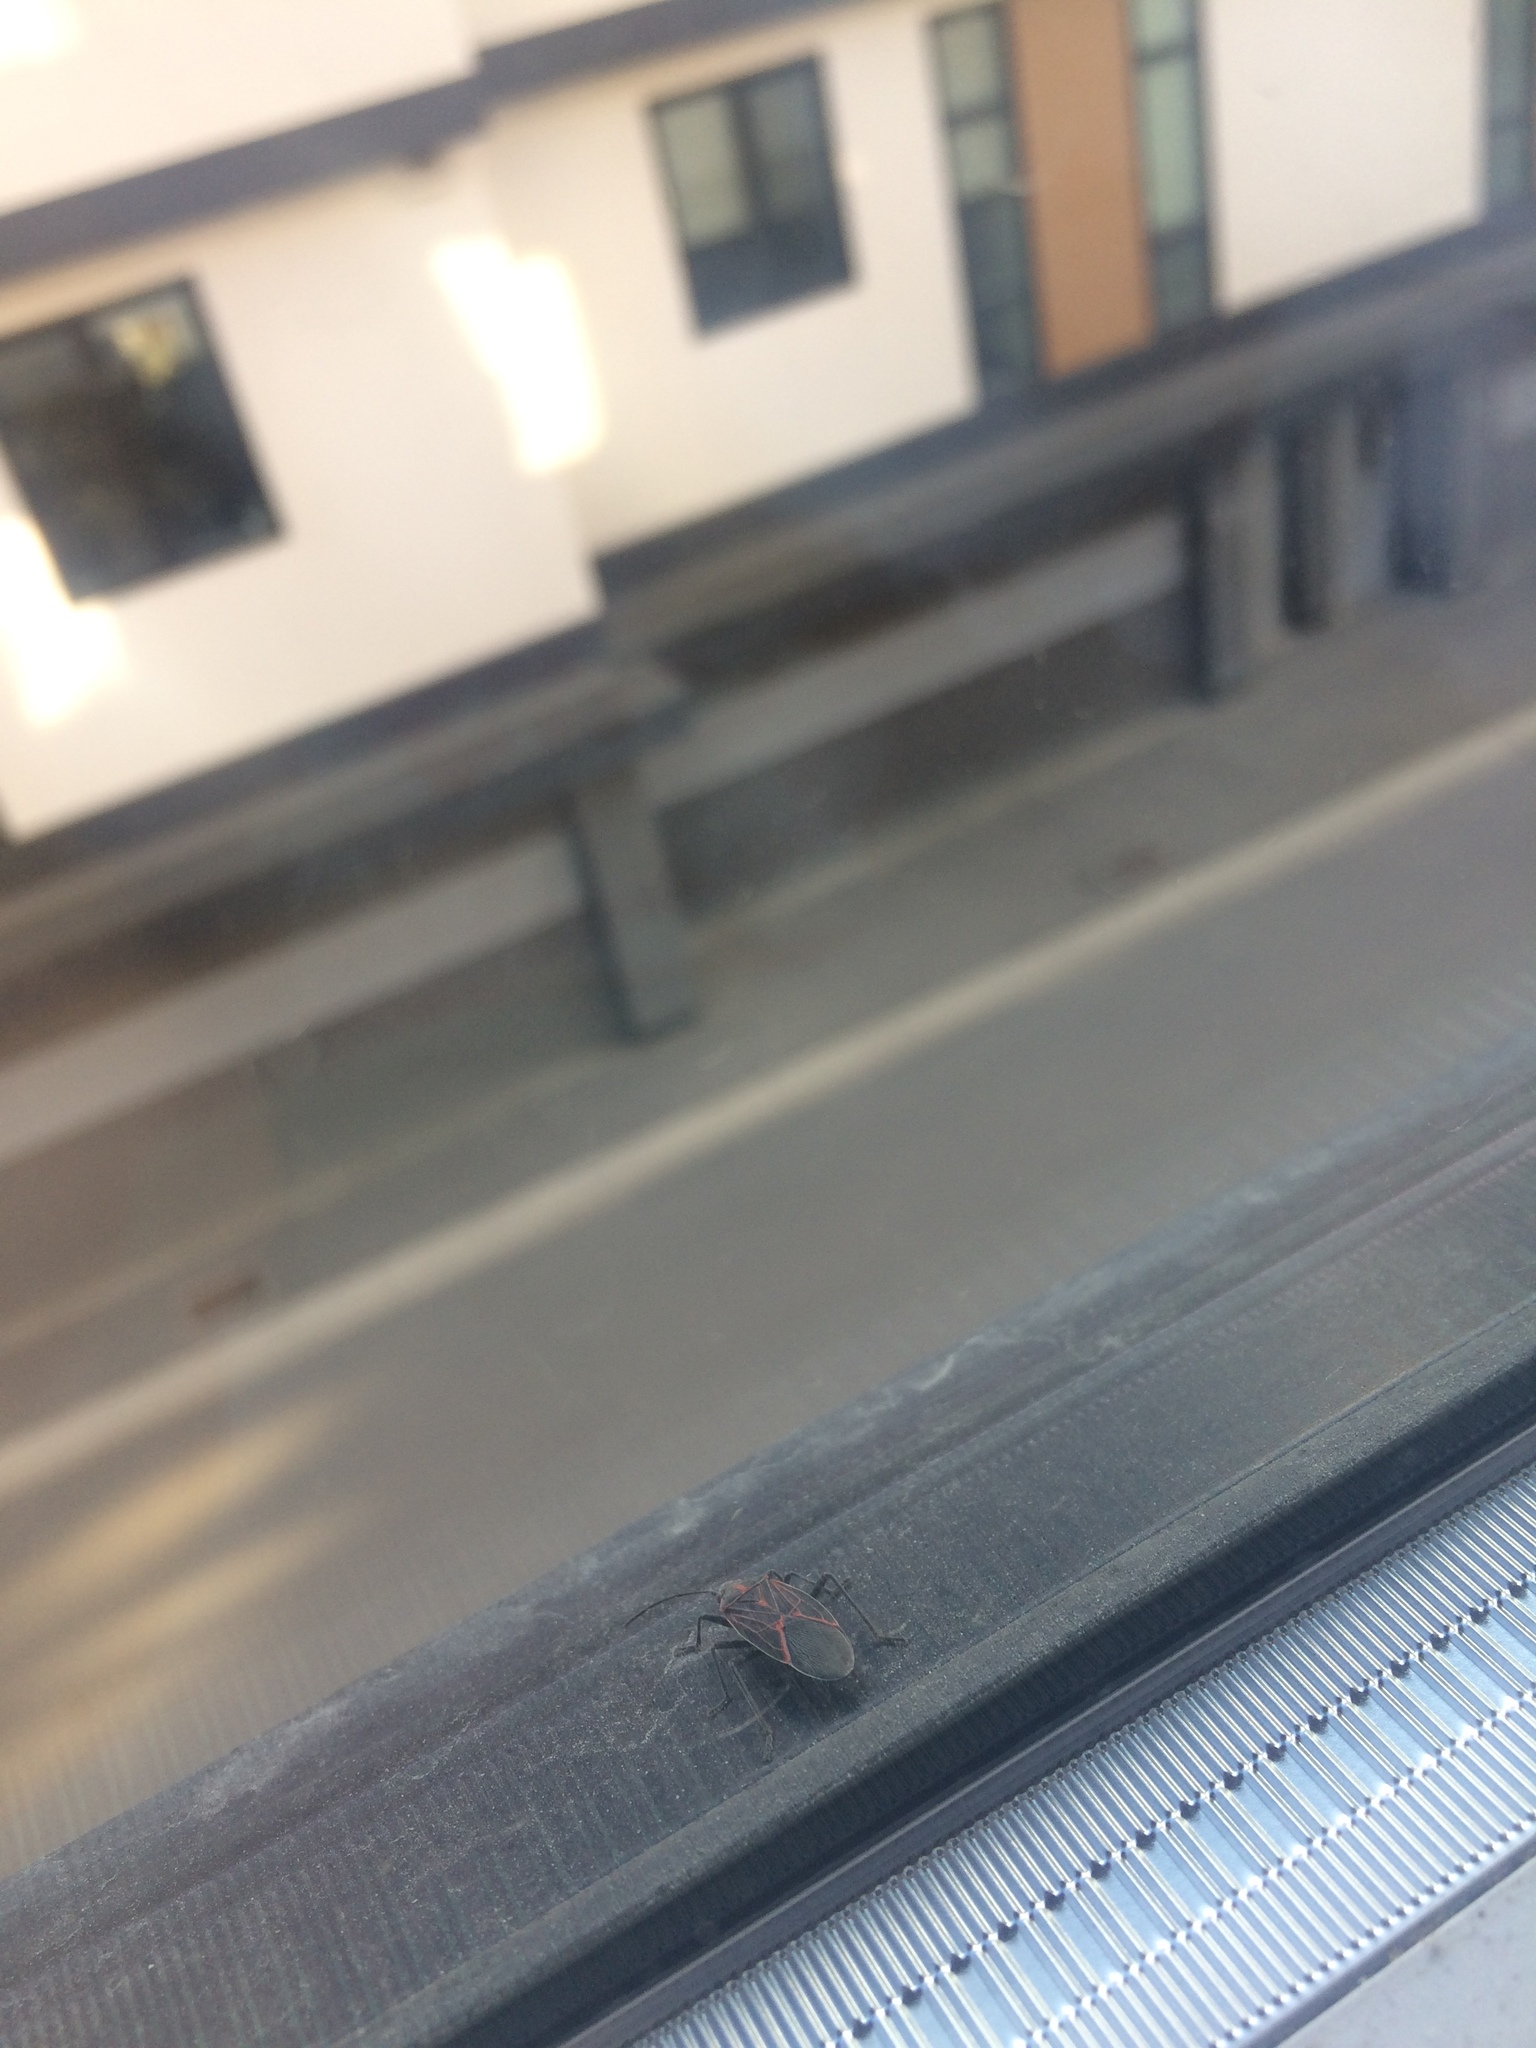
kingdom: Animalia
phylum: Arthropoda
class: Insecta
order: Hemiptera
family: Rhopalidae
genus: Boisea
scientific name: Boisea rubrolineata
